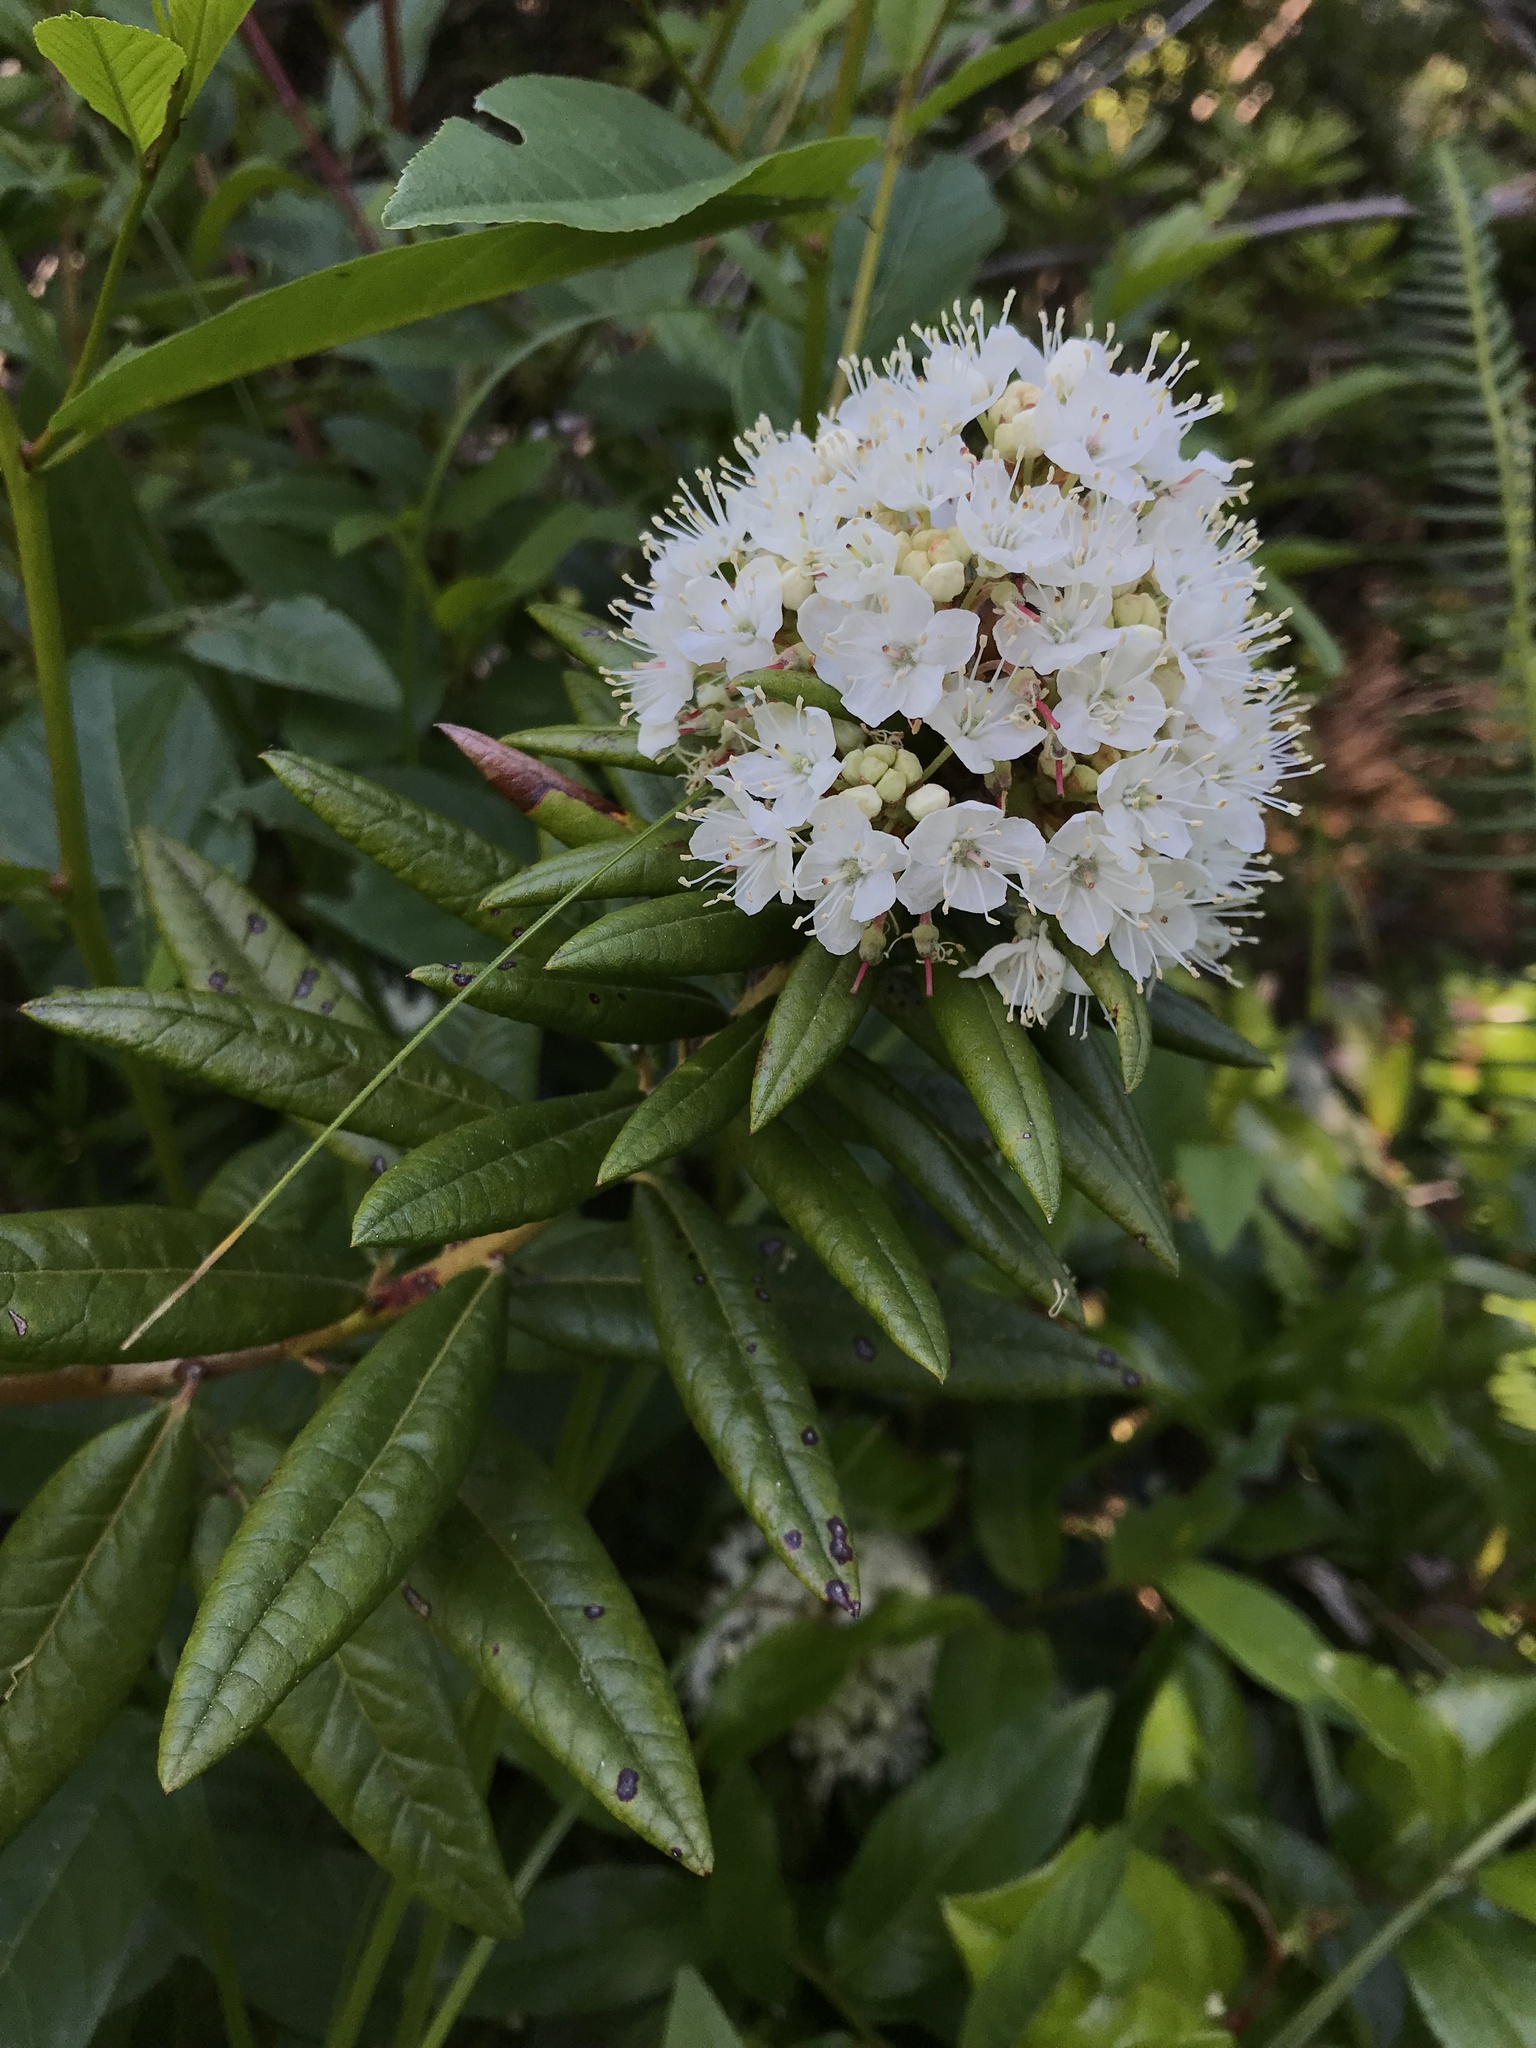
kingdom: Plantae
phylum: Tracheophyta
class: Magnoliopsida
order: Ericales
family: Ericaceae
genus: Rhododendron
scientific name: Rhododendron columbianum
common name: Western labrador tea
